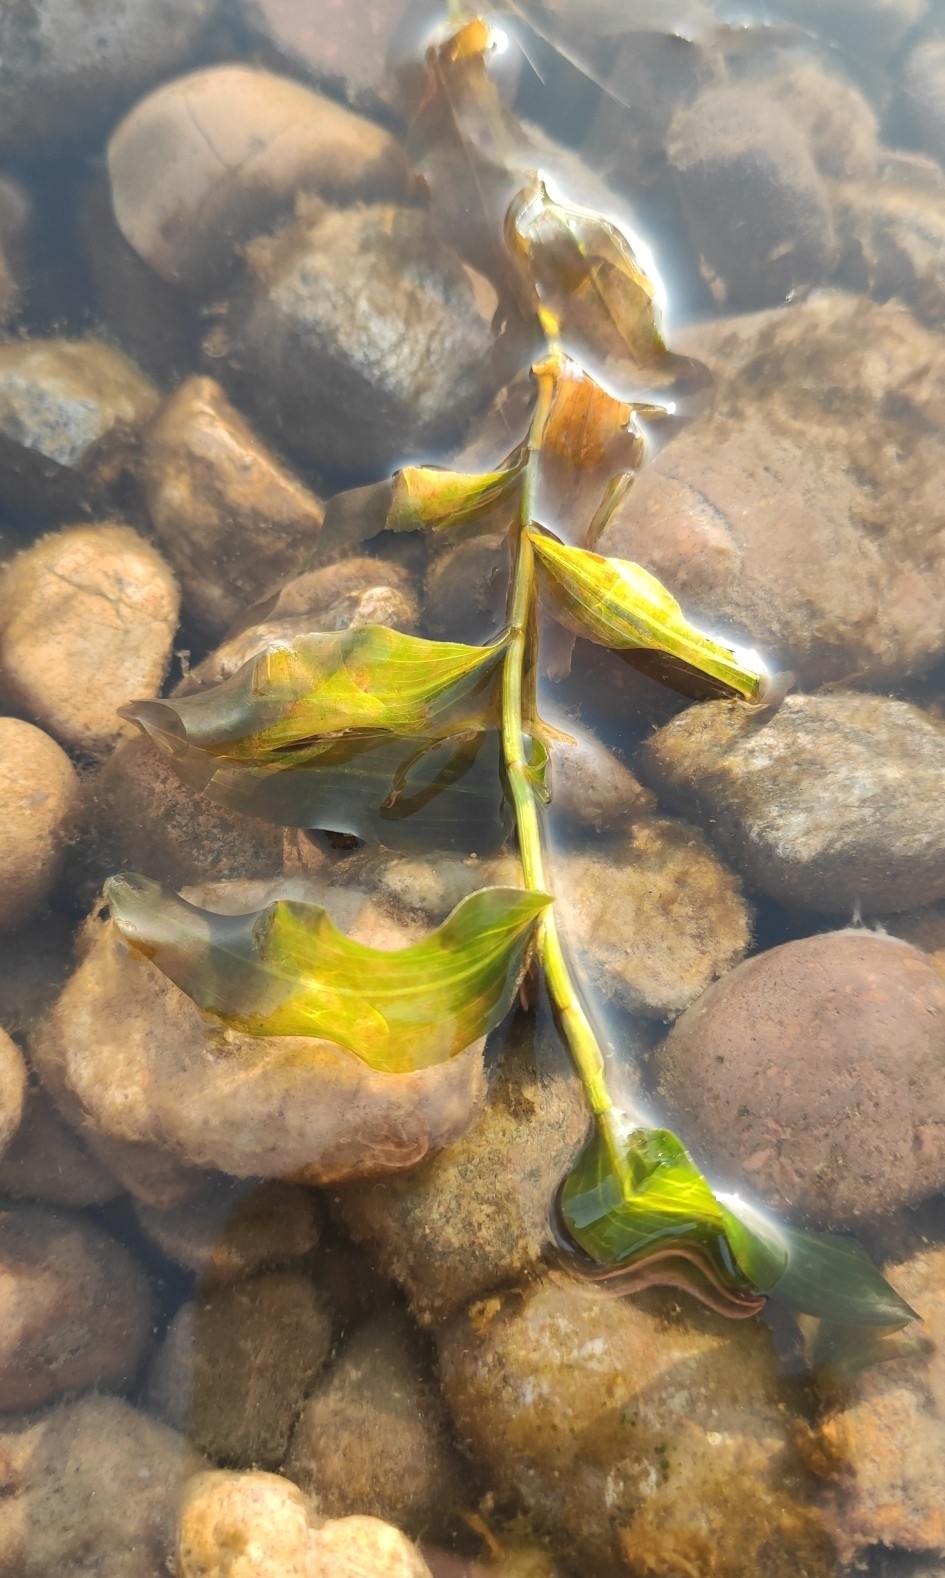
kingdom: Plantae
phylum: Tracheophyta
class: Liliopsida
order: Alismatales
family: Potamogetonaceae
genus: Potamogeton
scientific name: Potamogeton perfoliatus
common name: Perfoliate pondweed
